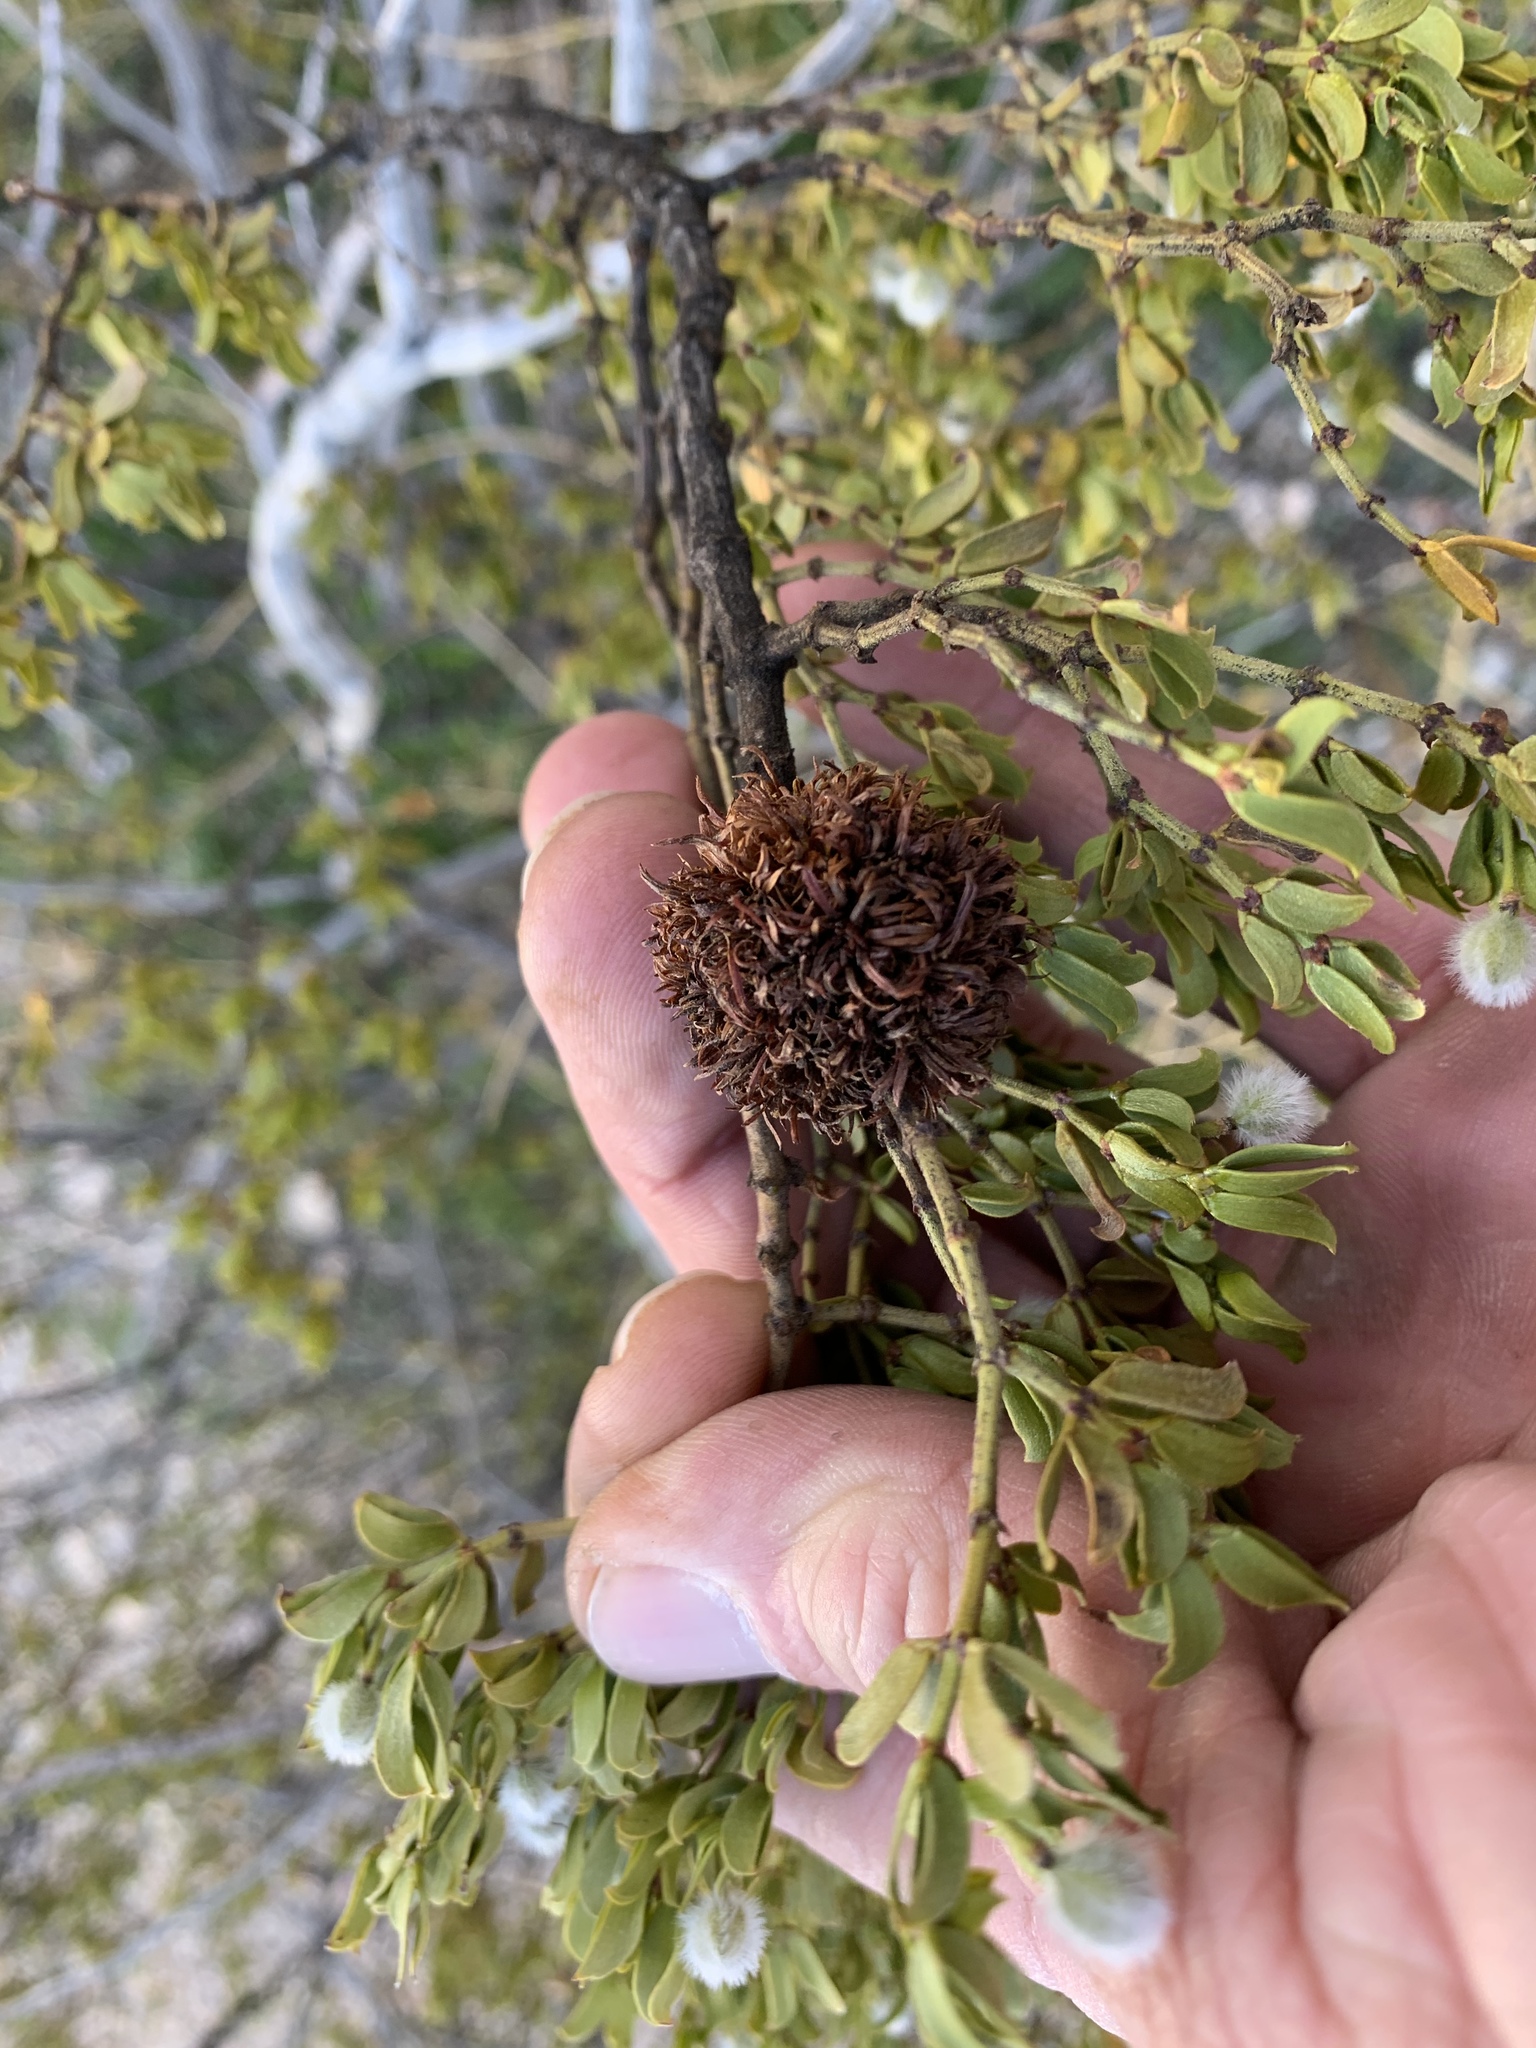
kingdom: Animalia
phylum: Arthropoda
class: Insecta
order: Diptera
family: Cecidomyiidae
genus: Asphondylia
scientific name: Asphondylia auripila
